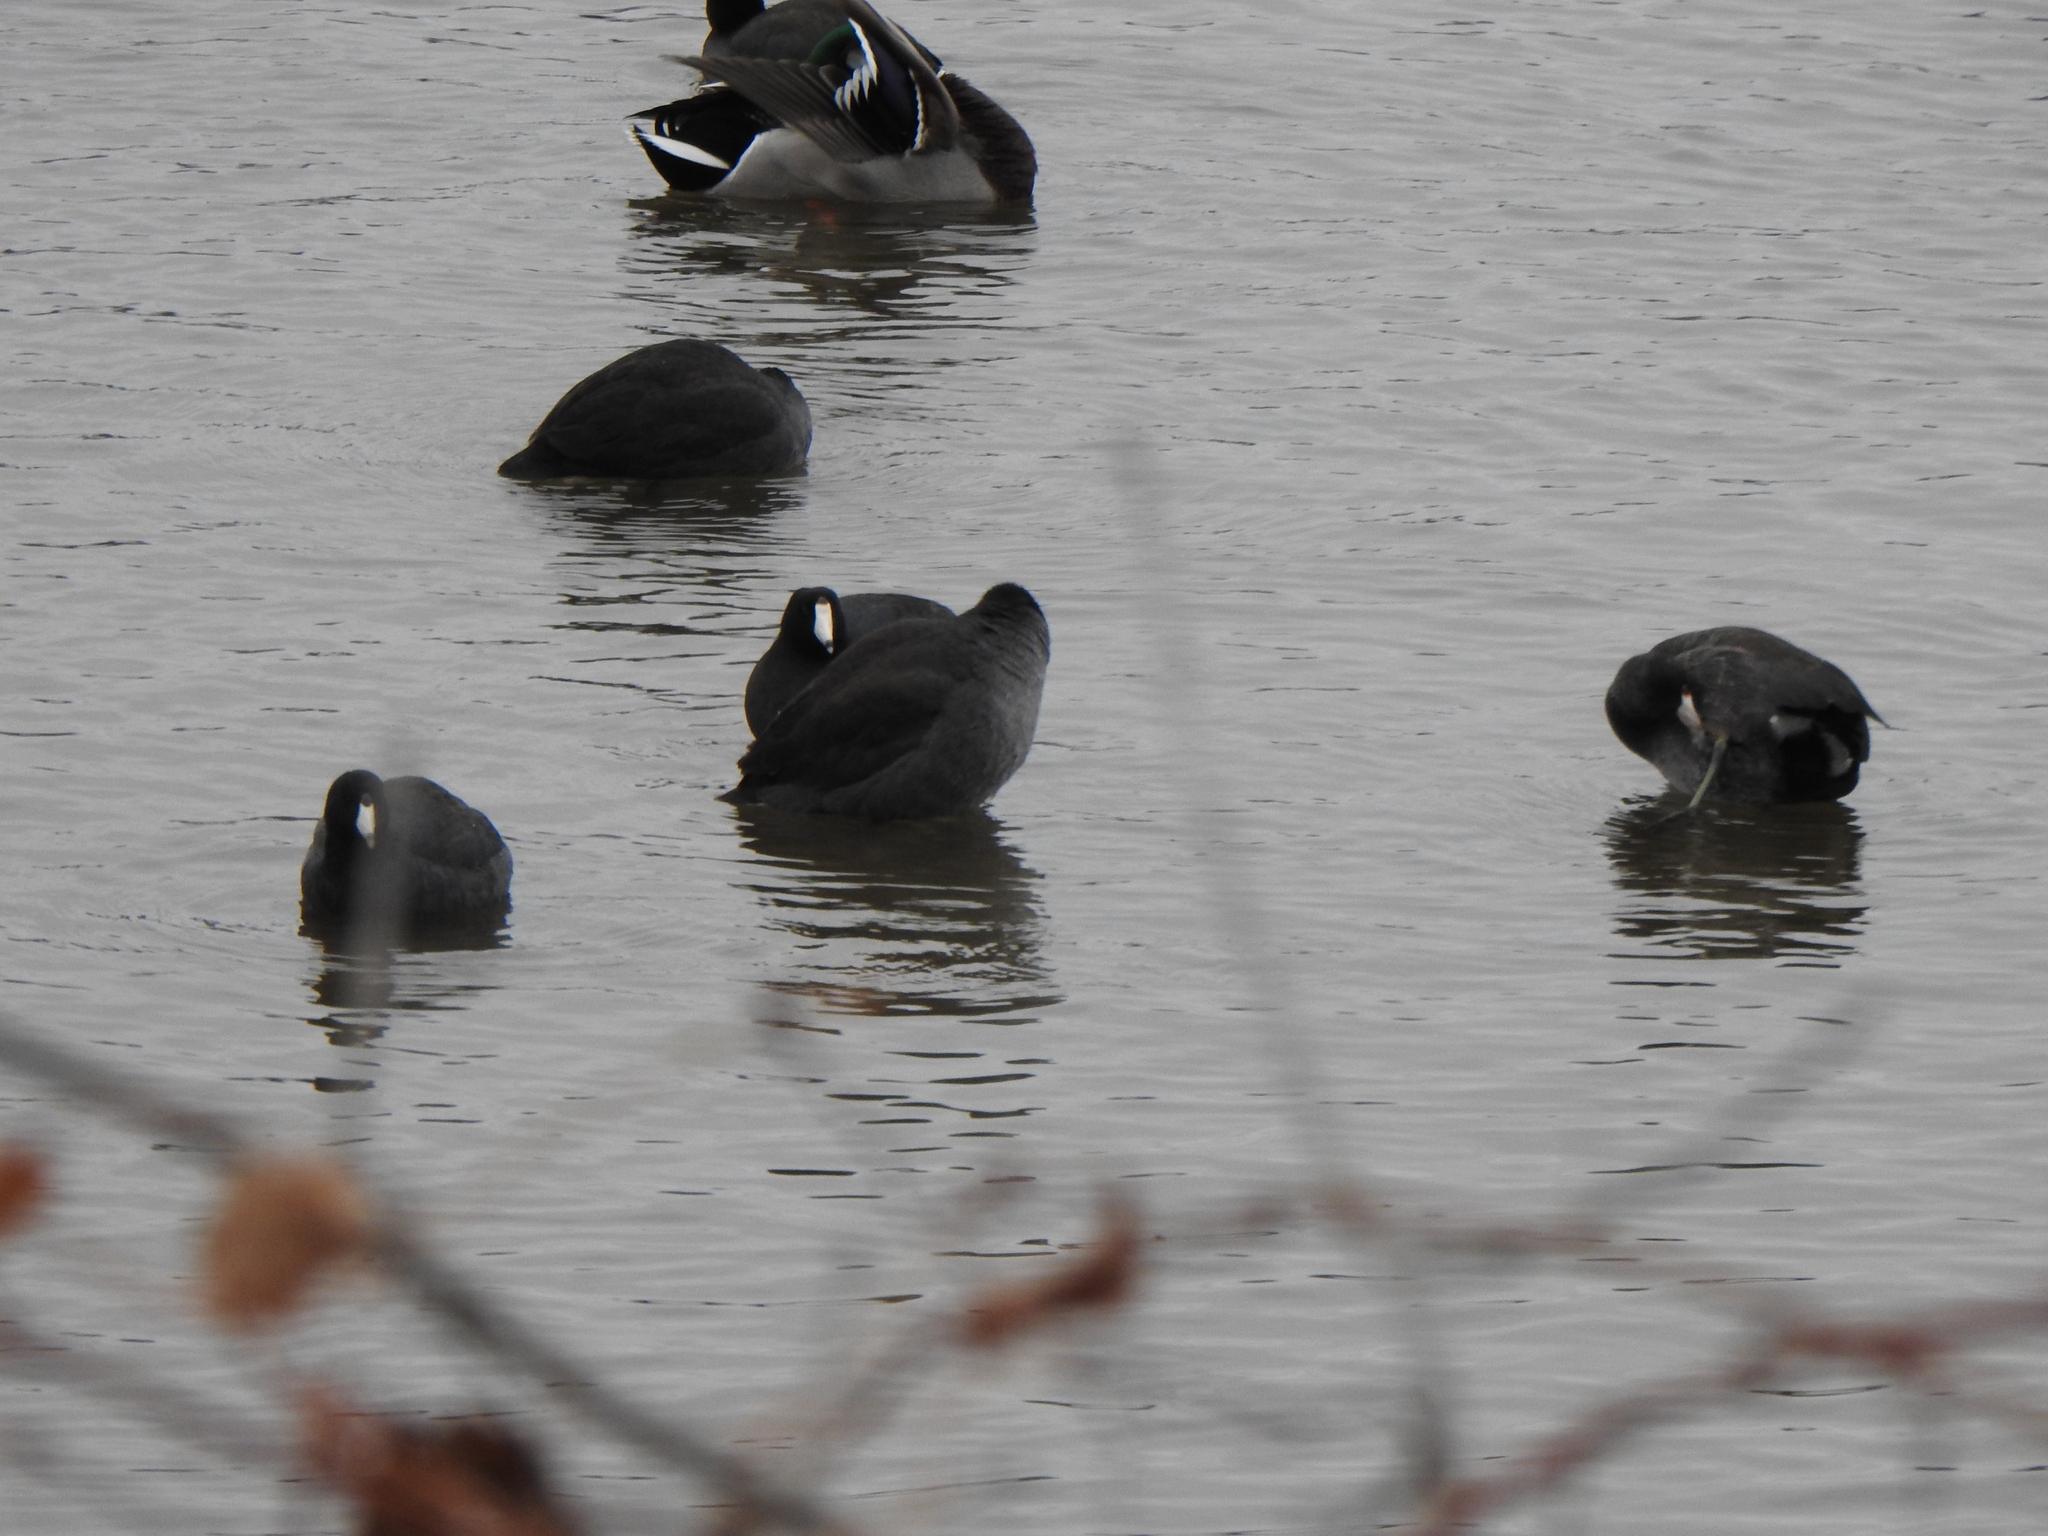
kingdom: Animalia
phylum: Chordata
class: Aves
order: Gruiformes
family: Rallidae
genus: Fulica
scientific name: Fulica americana
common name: American coot
